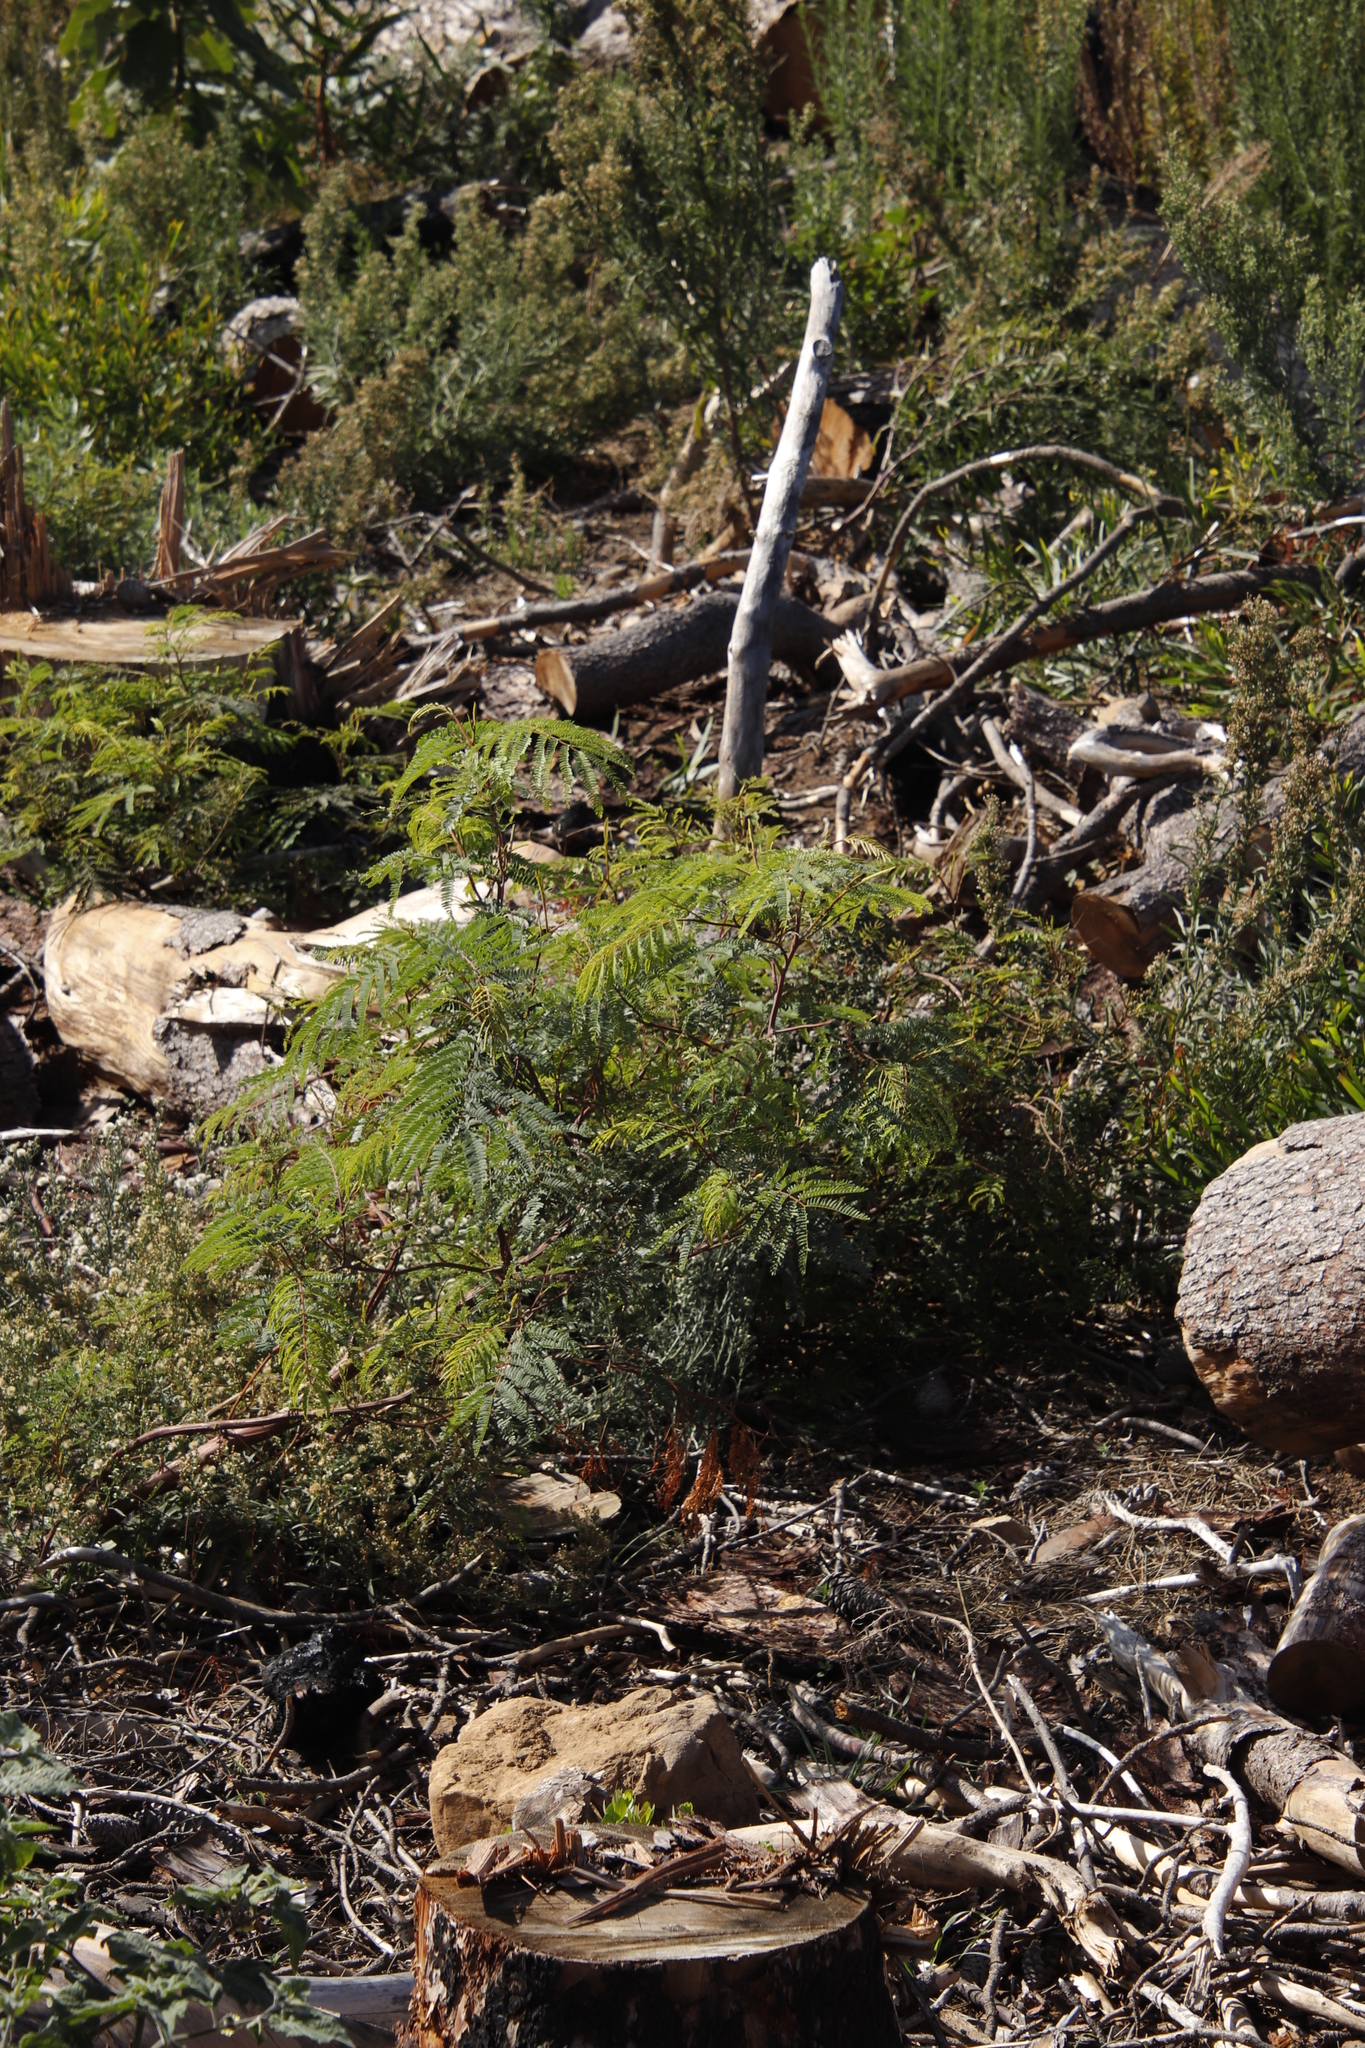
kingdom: Plantae
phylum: Tracheophyta
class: Magnoliopsida
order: Fabales
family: Fabaceae
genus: Paraserianthes
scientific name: Paraserianthes lophantha
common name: Plume albizia
